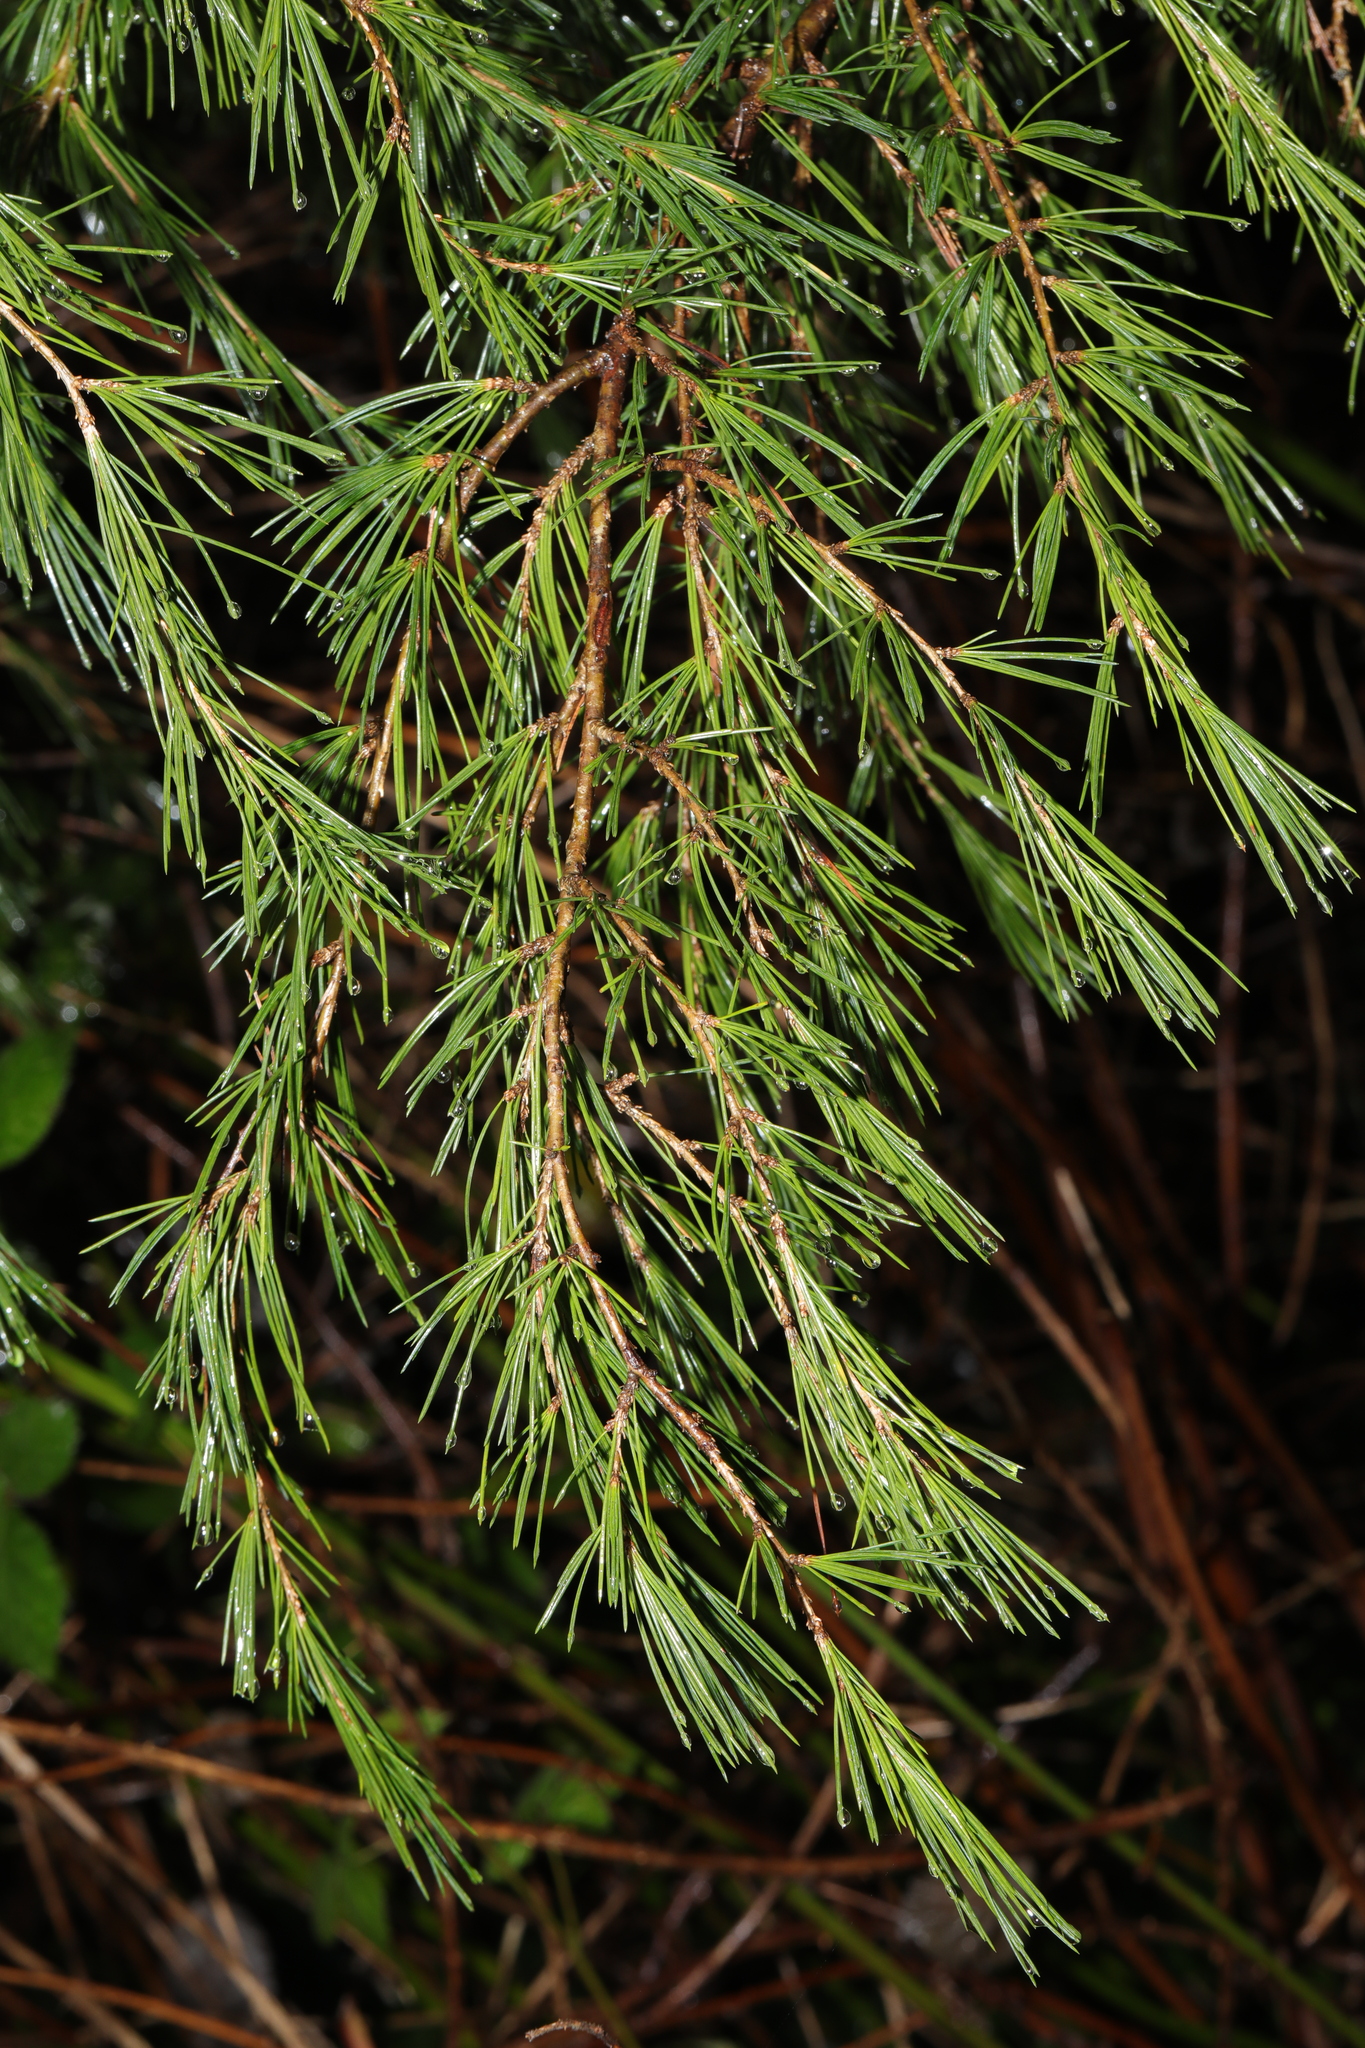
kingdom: Plantae
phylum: Tracheophyta
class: Pinopsida
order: Pinales
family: Pinaceae
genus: Cedrus
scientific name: Cedrus deodara
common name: Deodar
